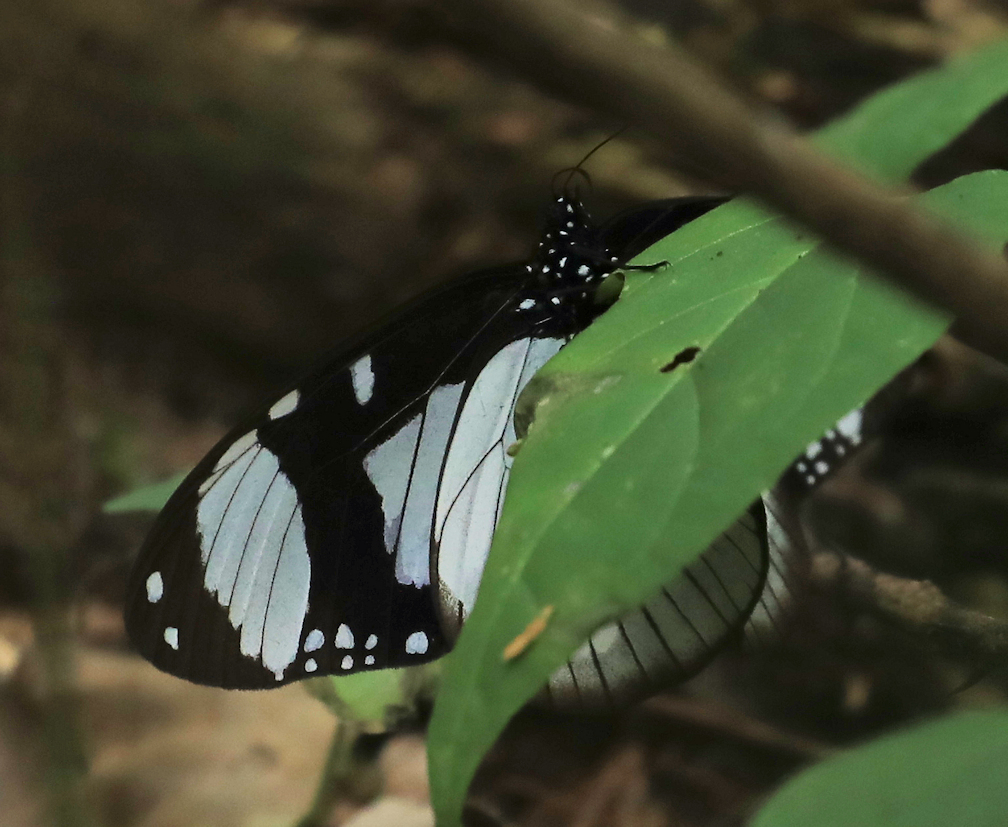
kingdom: Animalia
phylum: Arthropoda
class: Insecta
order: Lepidoptera
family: Nymphalidae
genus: Amauris
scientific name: Amauris niavius
